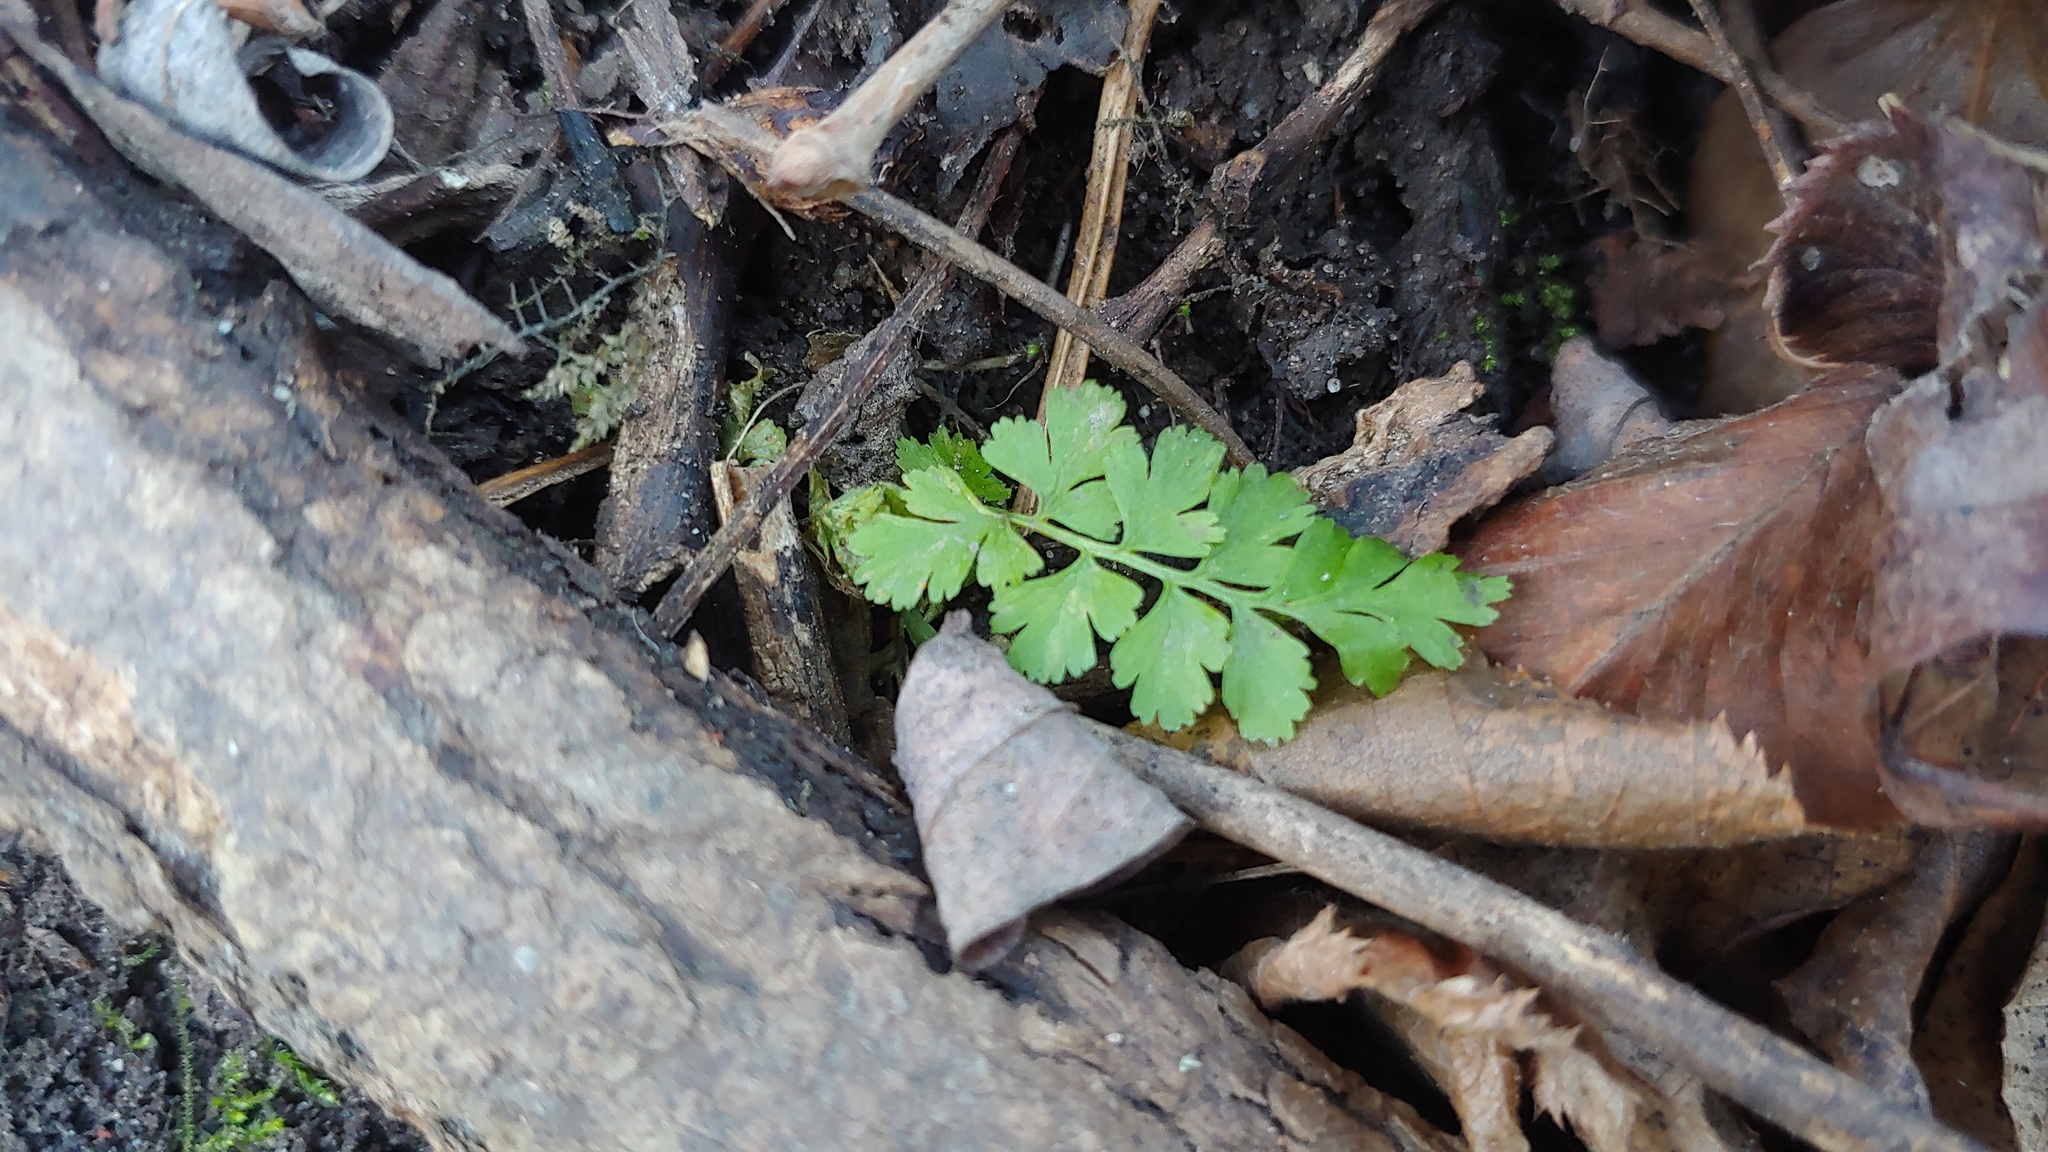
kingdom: Plantae
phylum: Tracheophyta
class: Polypodiopsida
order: Polypodiales
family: Cystopteridaceae
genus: Cystopteris
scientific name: Cystopteris protrusa
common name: Lowland brittle fern
